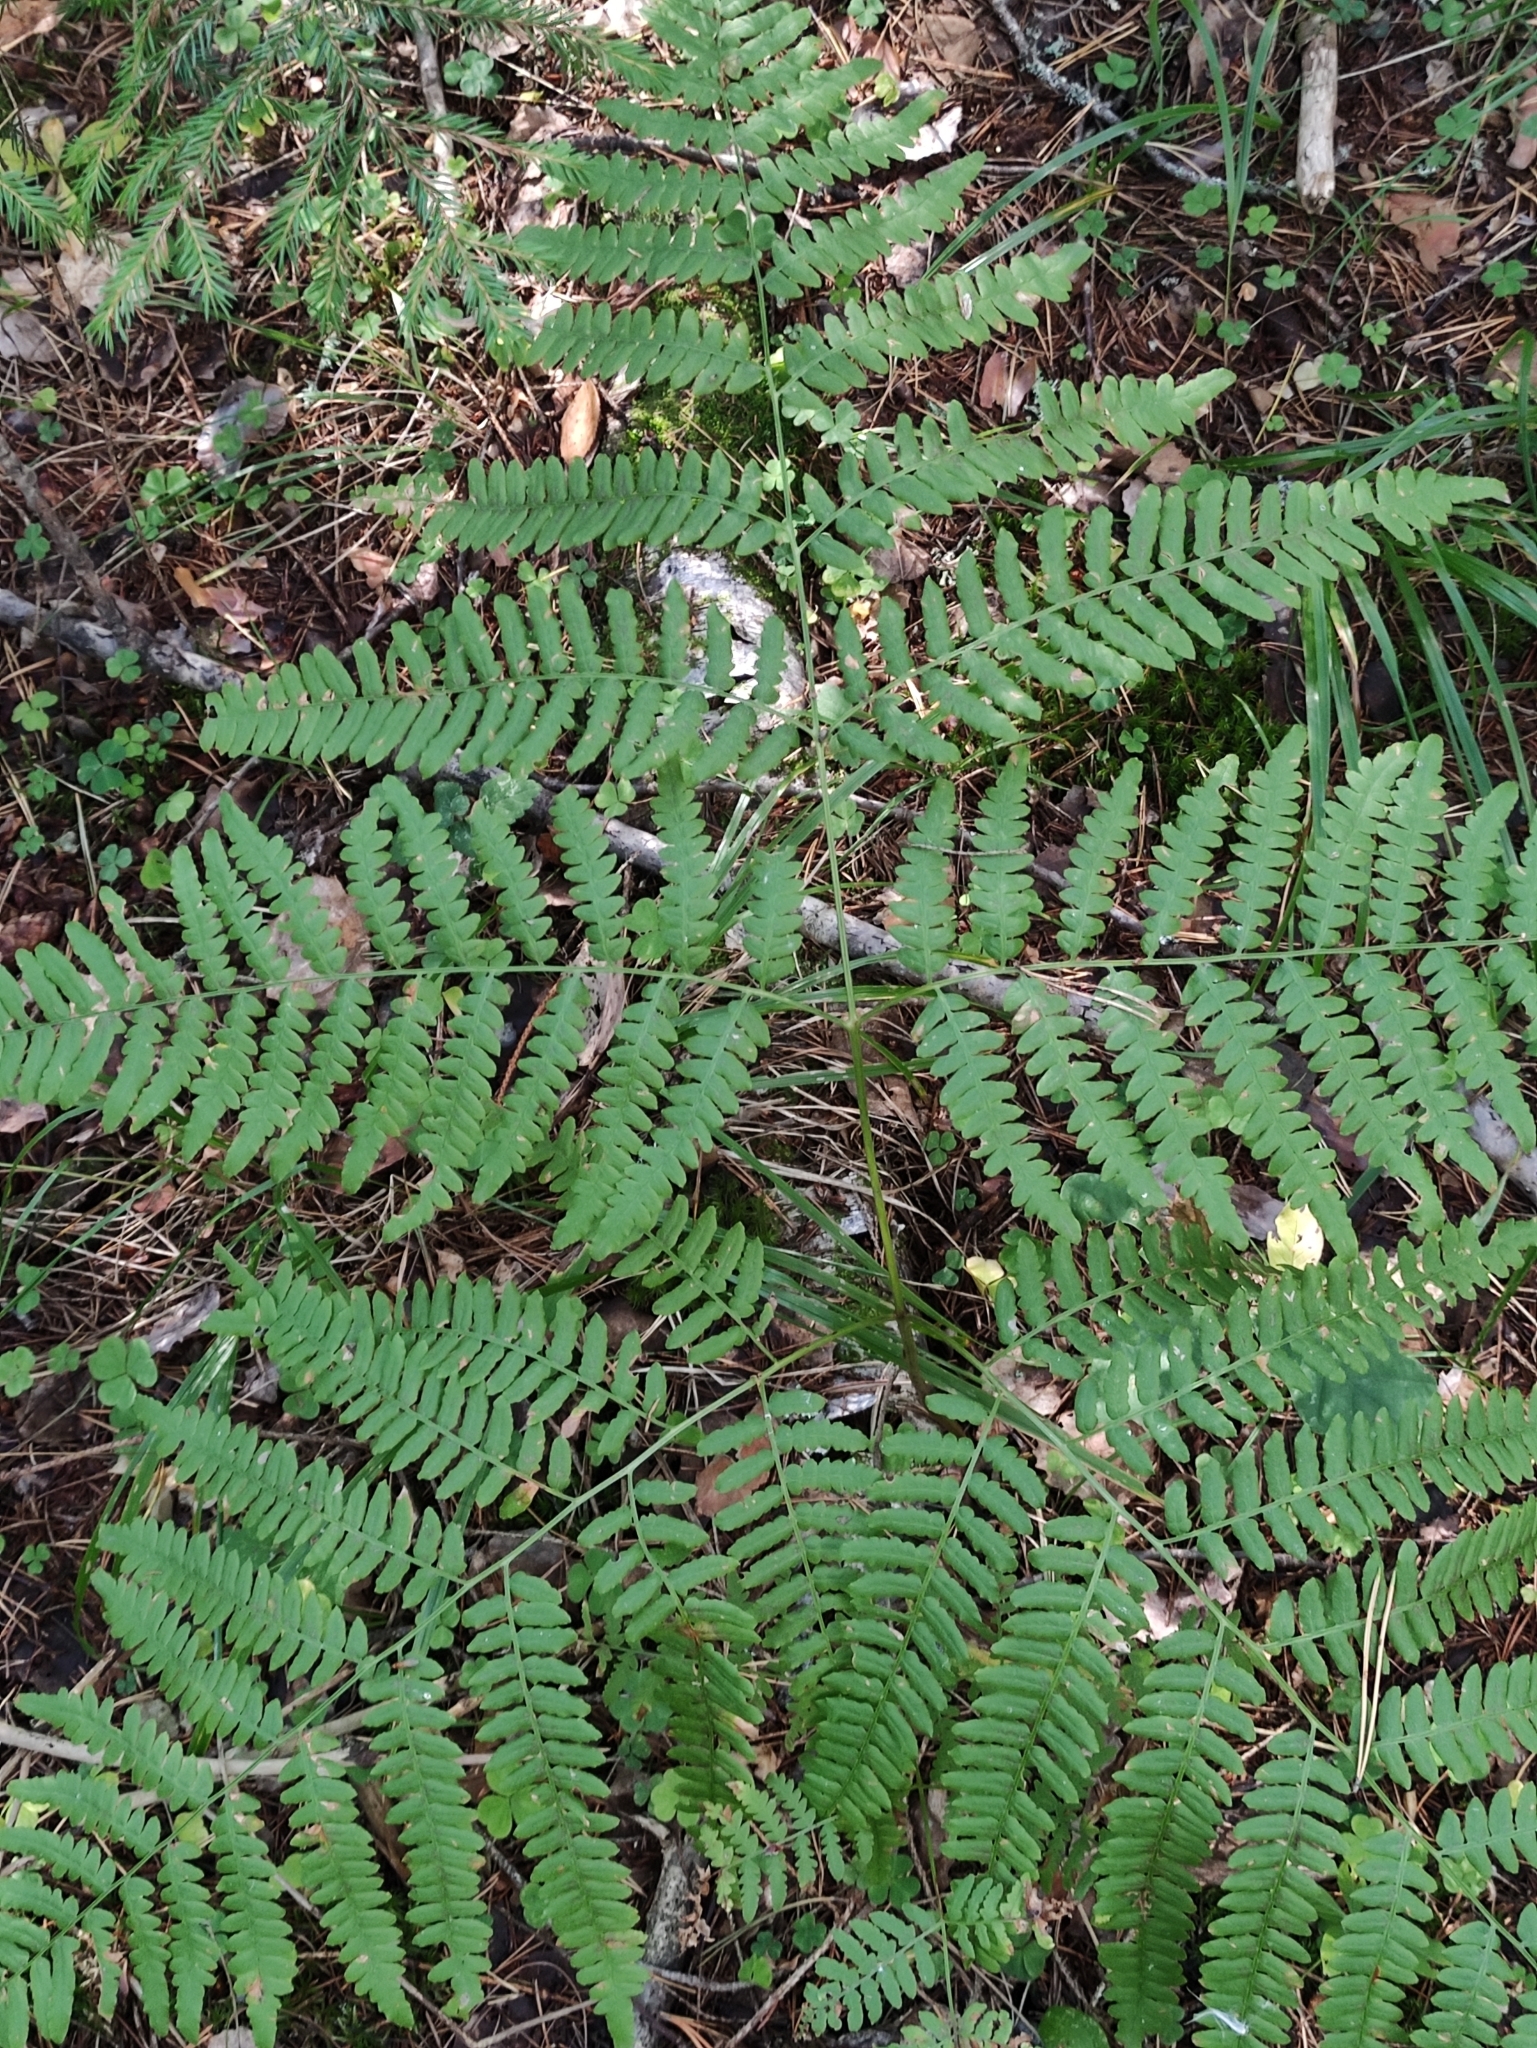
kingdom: Plantae
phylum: Tracheophyta
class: Polypodiopsida
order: Polypodiales
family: Dennstaedtiaceae
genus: Pteridium
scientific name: Pteridium aquilinum
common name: Bracken
